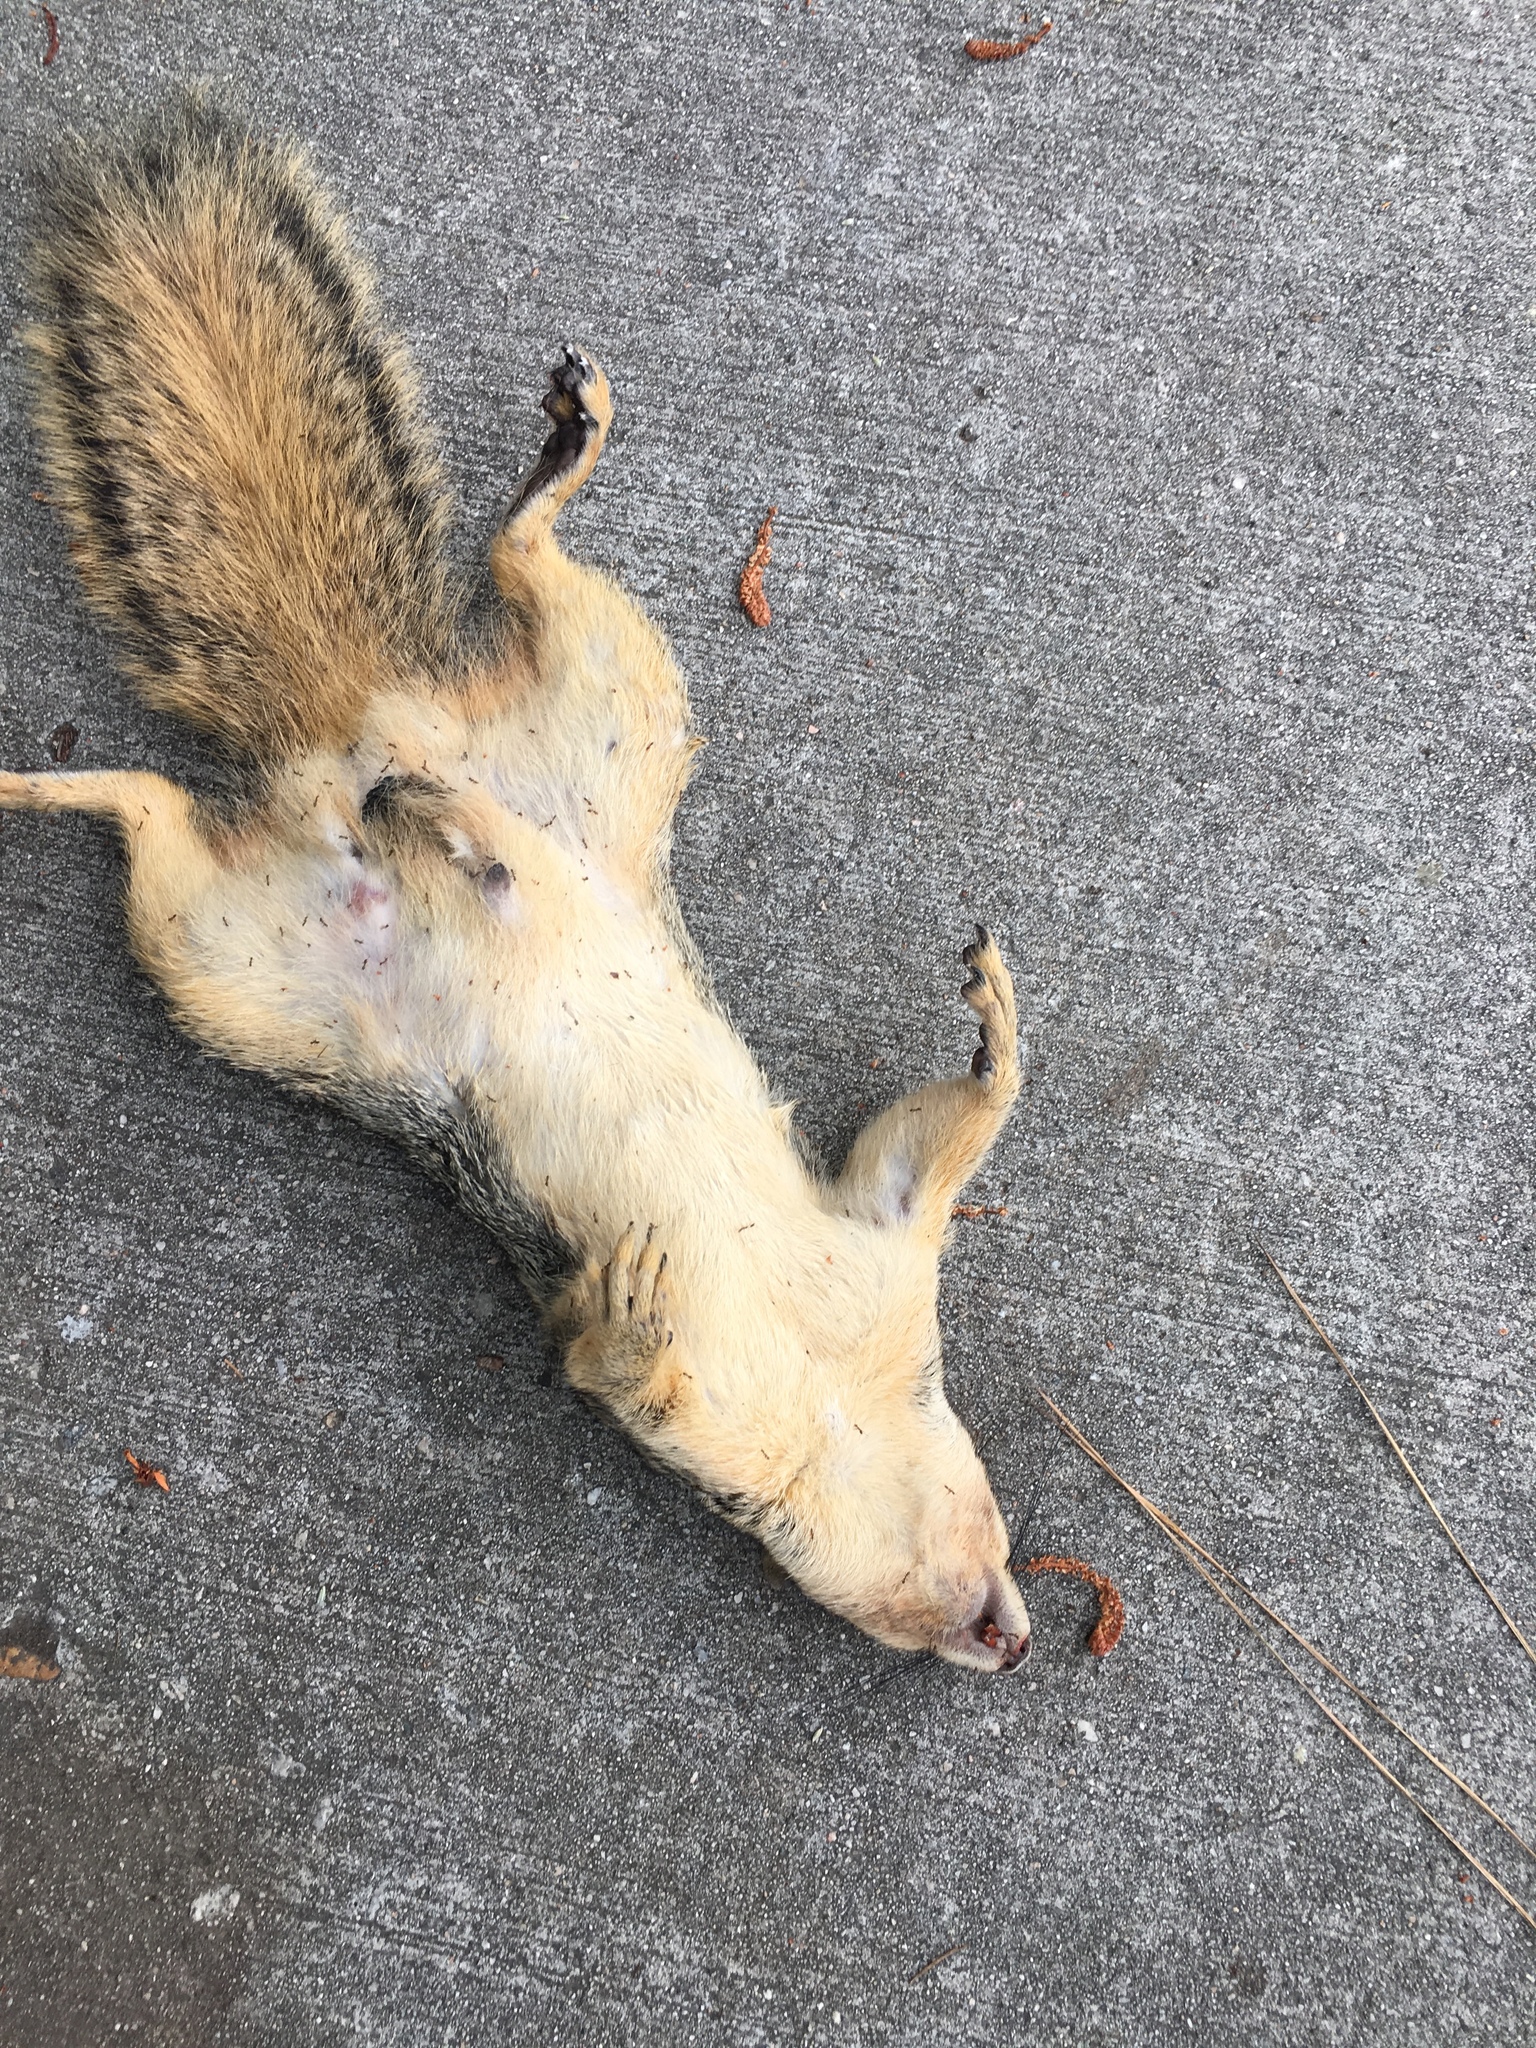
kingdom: Animalia
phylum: Chordata
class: Mammalia
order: Rodentia
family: Sciuridae
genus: Sciurus
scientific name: Sciurus niger
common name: Fox squirrel
